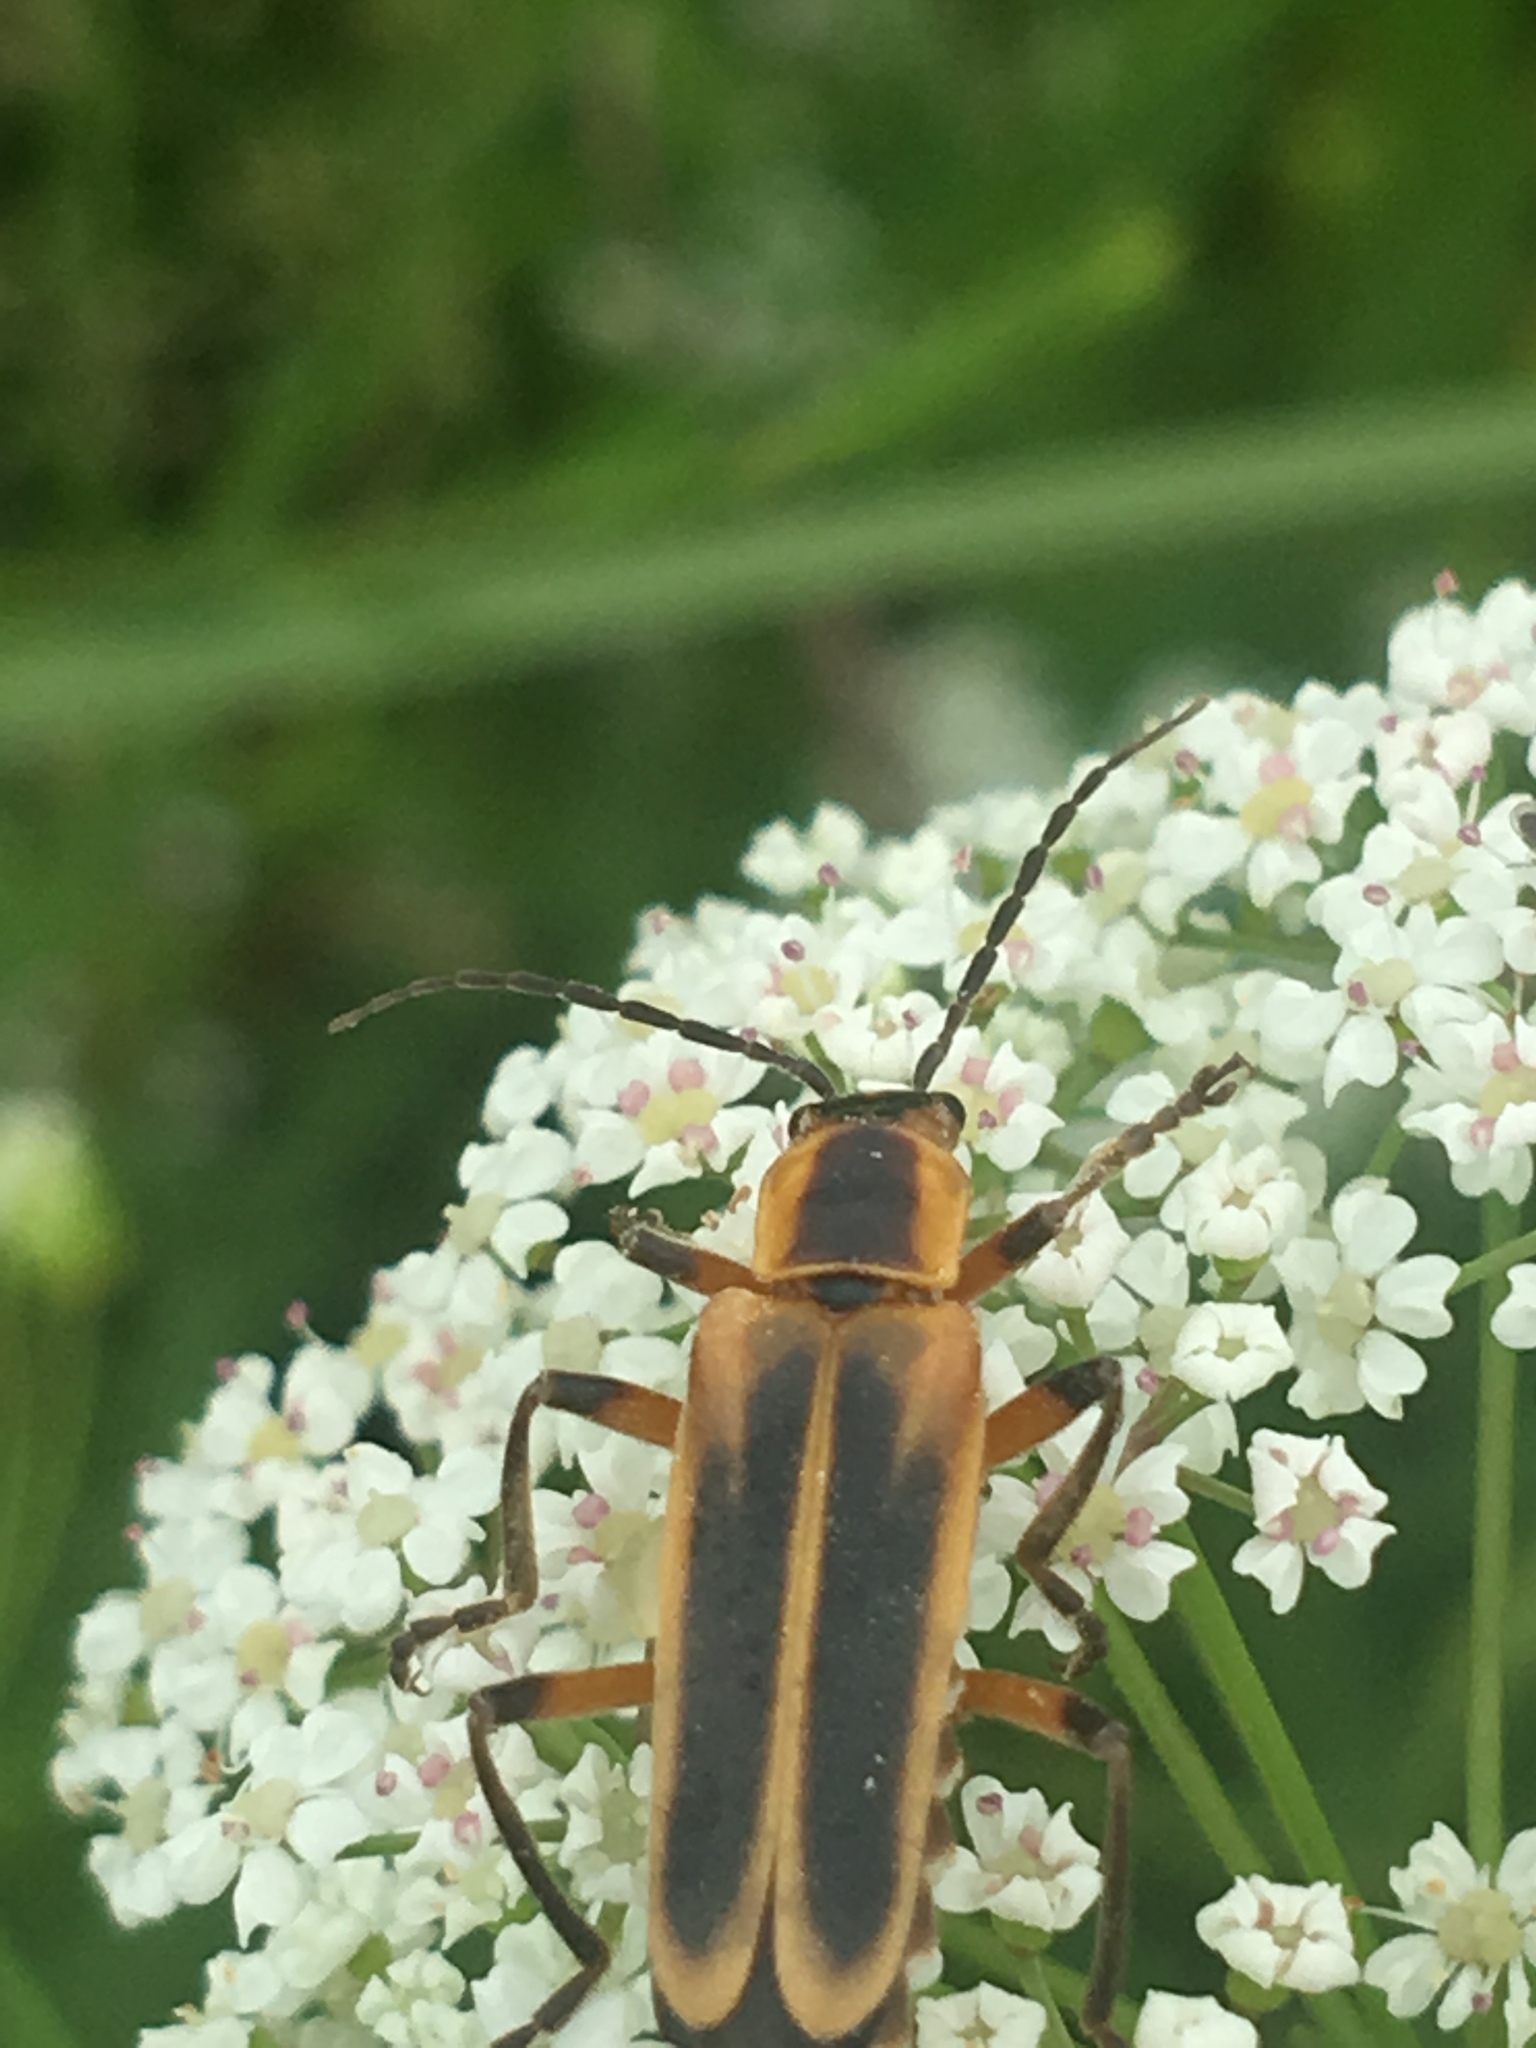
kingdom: Animalia
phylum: Arthropoda
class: Insecta
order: Coleoptera
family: Cantharidae
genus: Chauliognathus
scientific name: Chauliognathus marginatus
